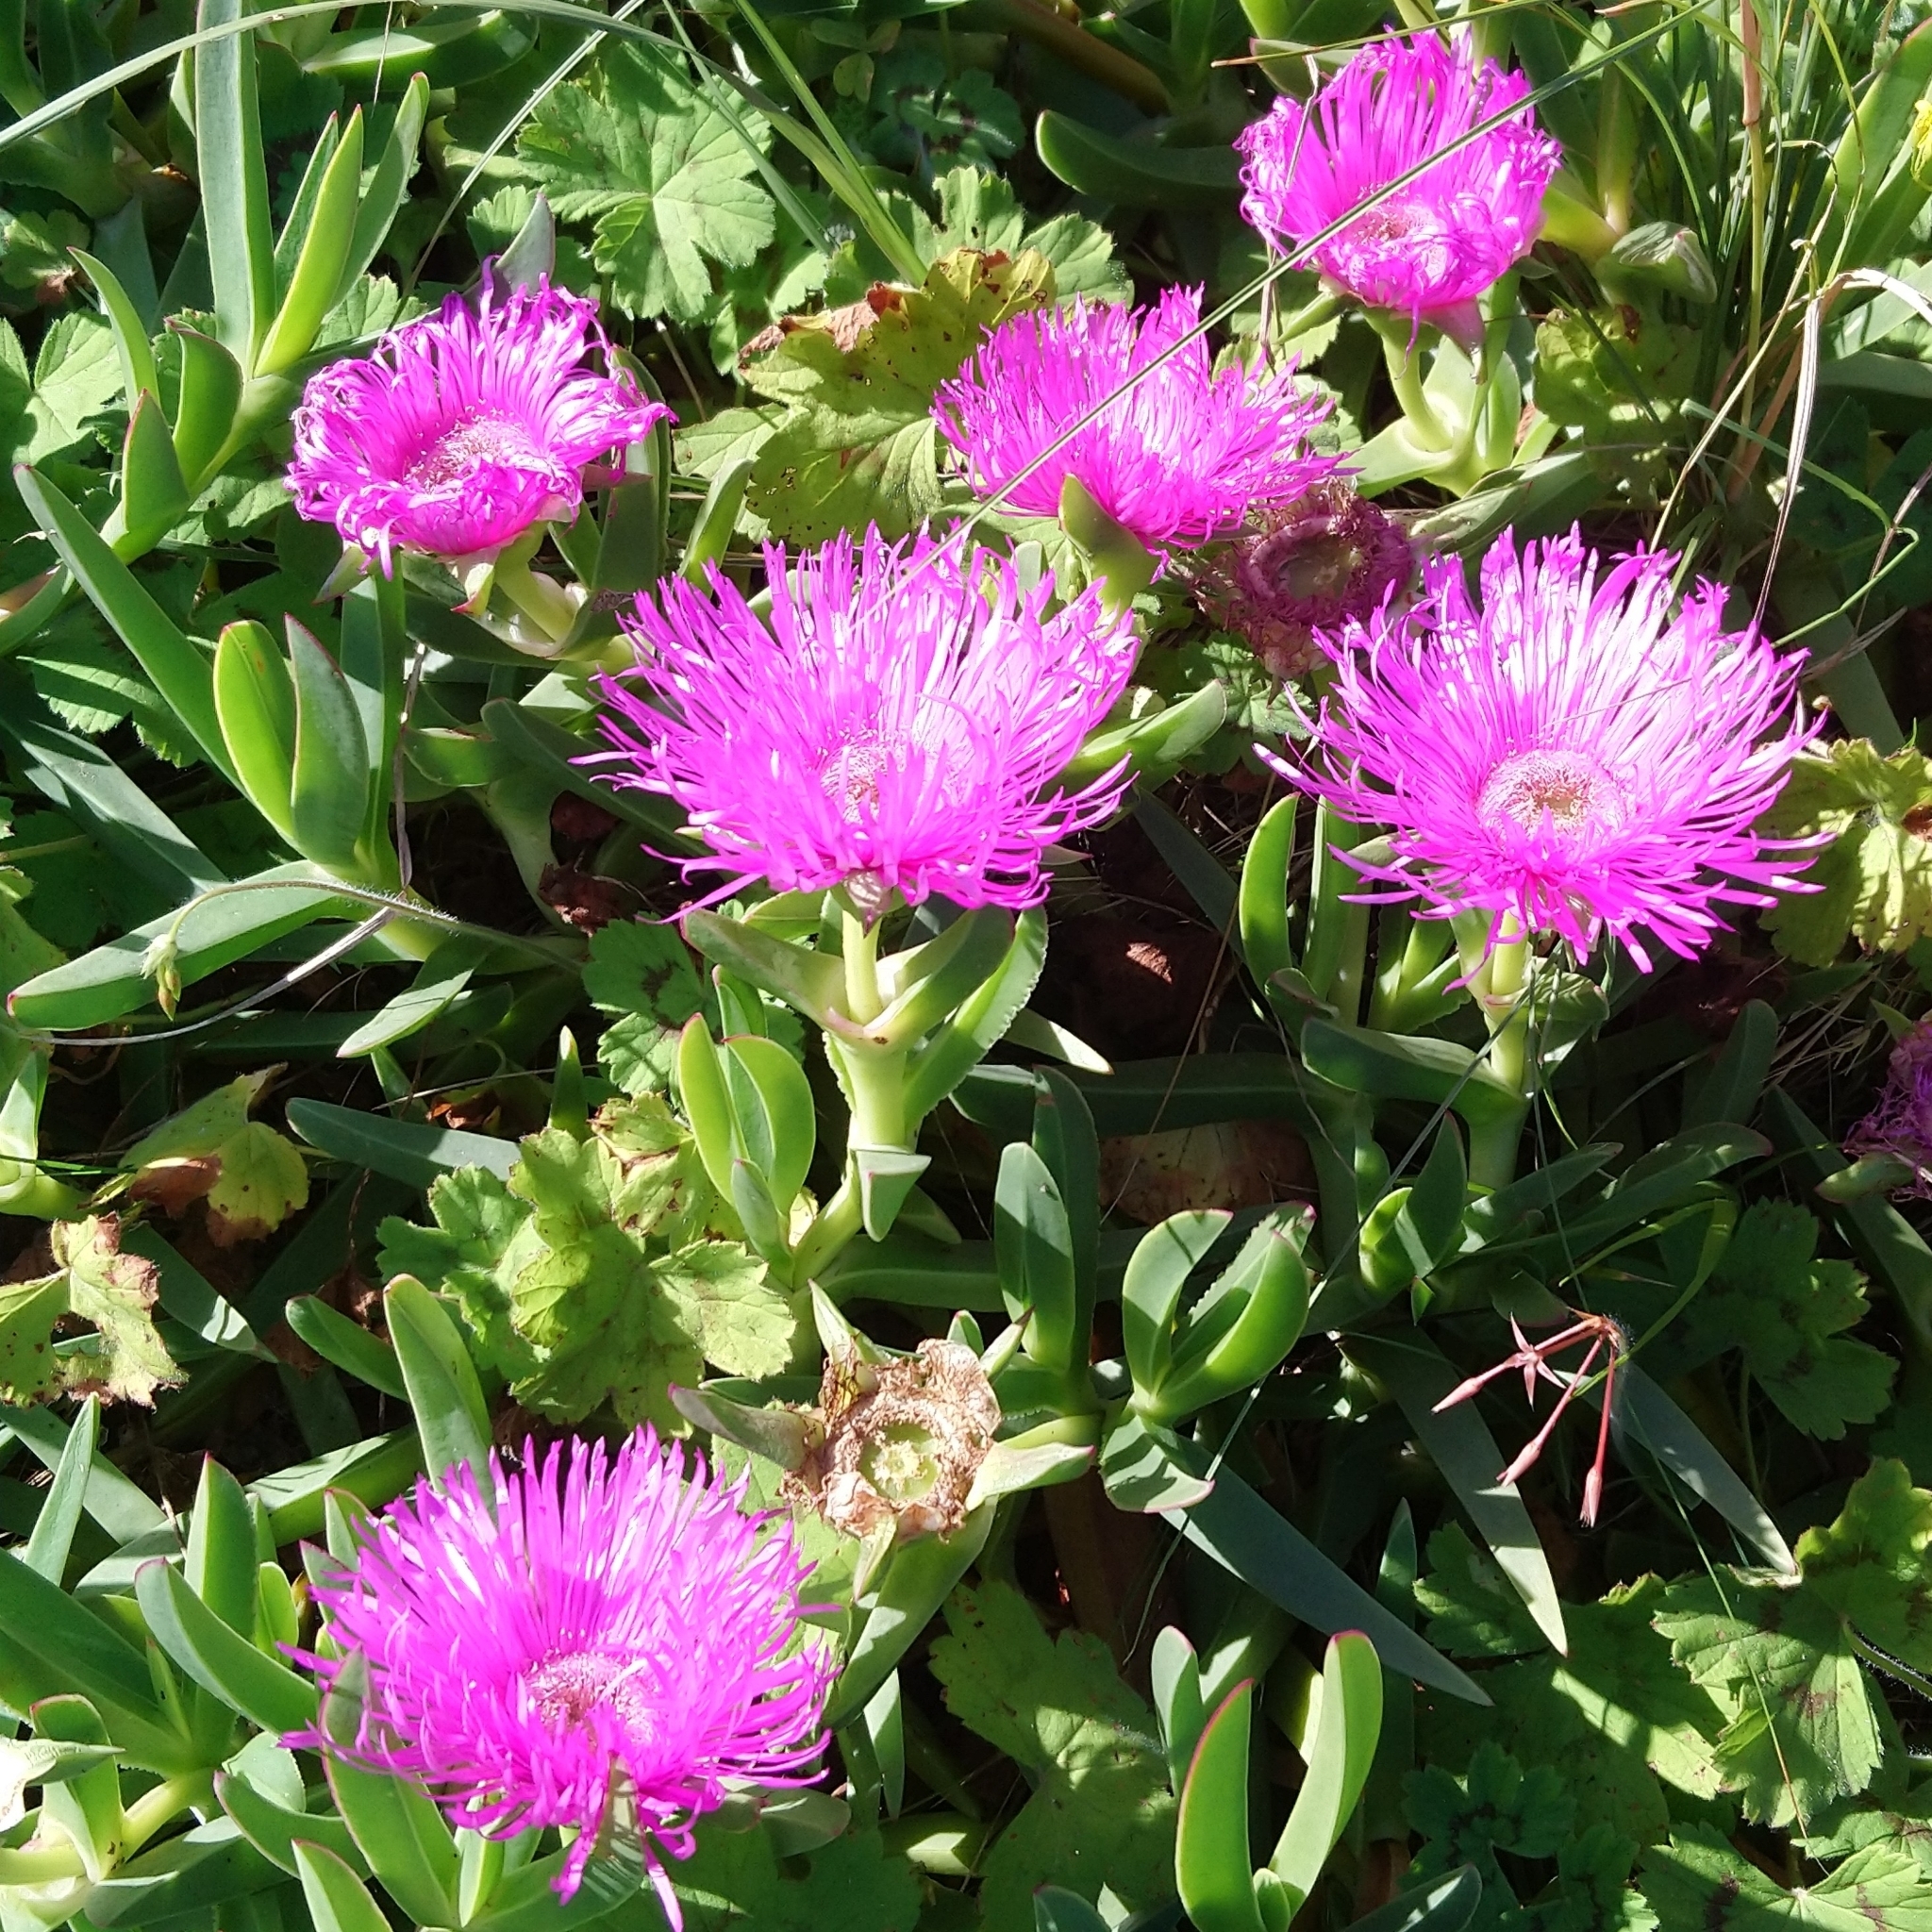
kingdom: Plantae
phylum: Tracheophyta
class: Magnoliopsida
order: Caryophyllales
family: Aizoaceae
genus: Carpobrotus
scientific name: Carpobrotus deliciosus
